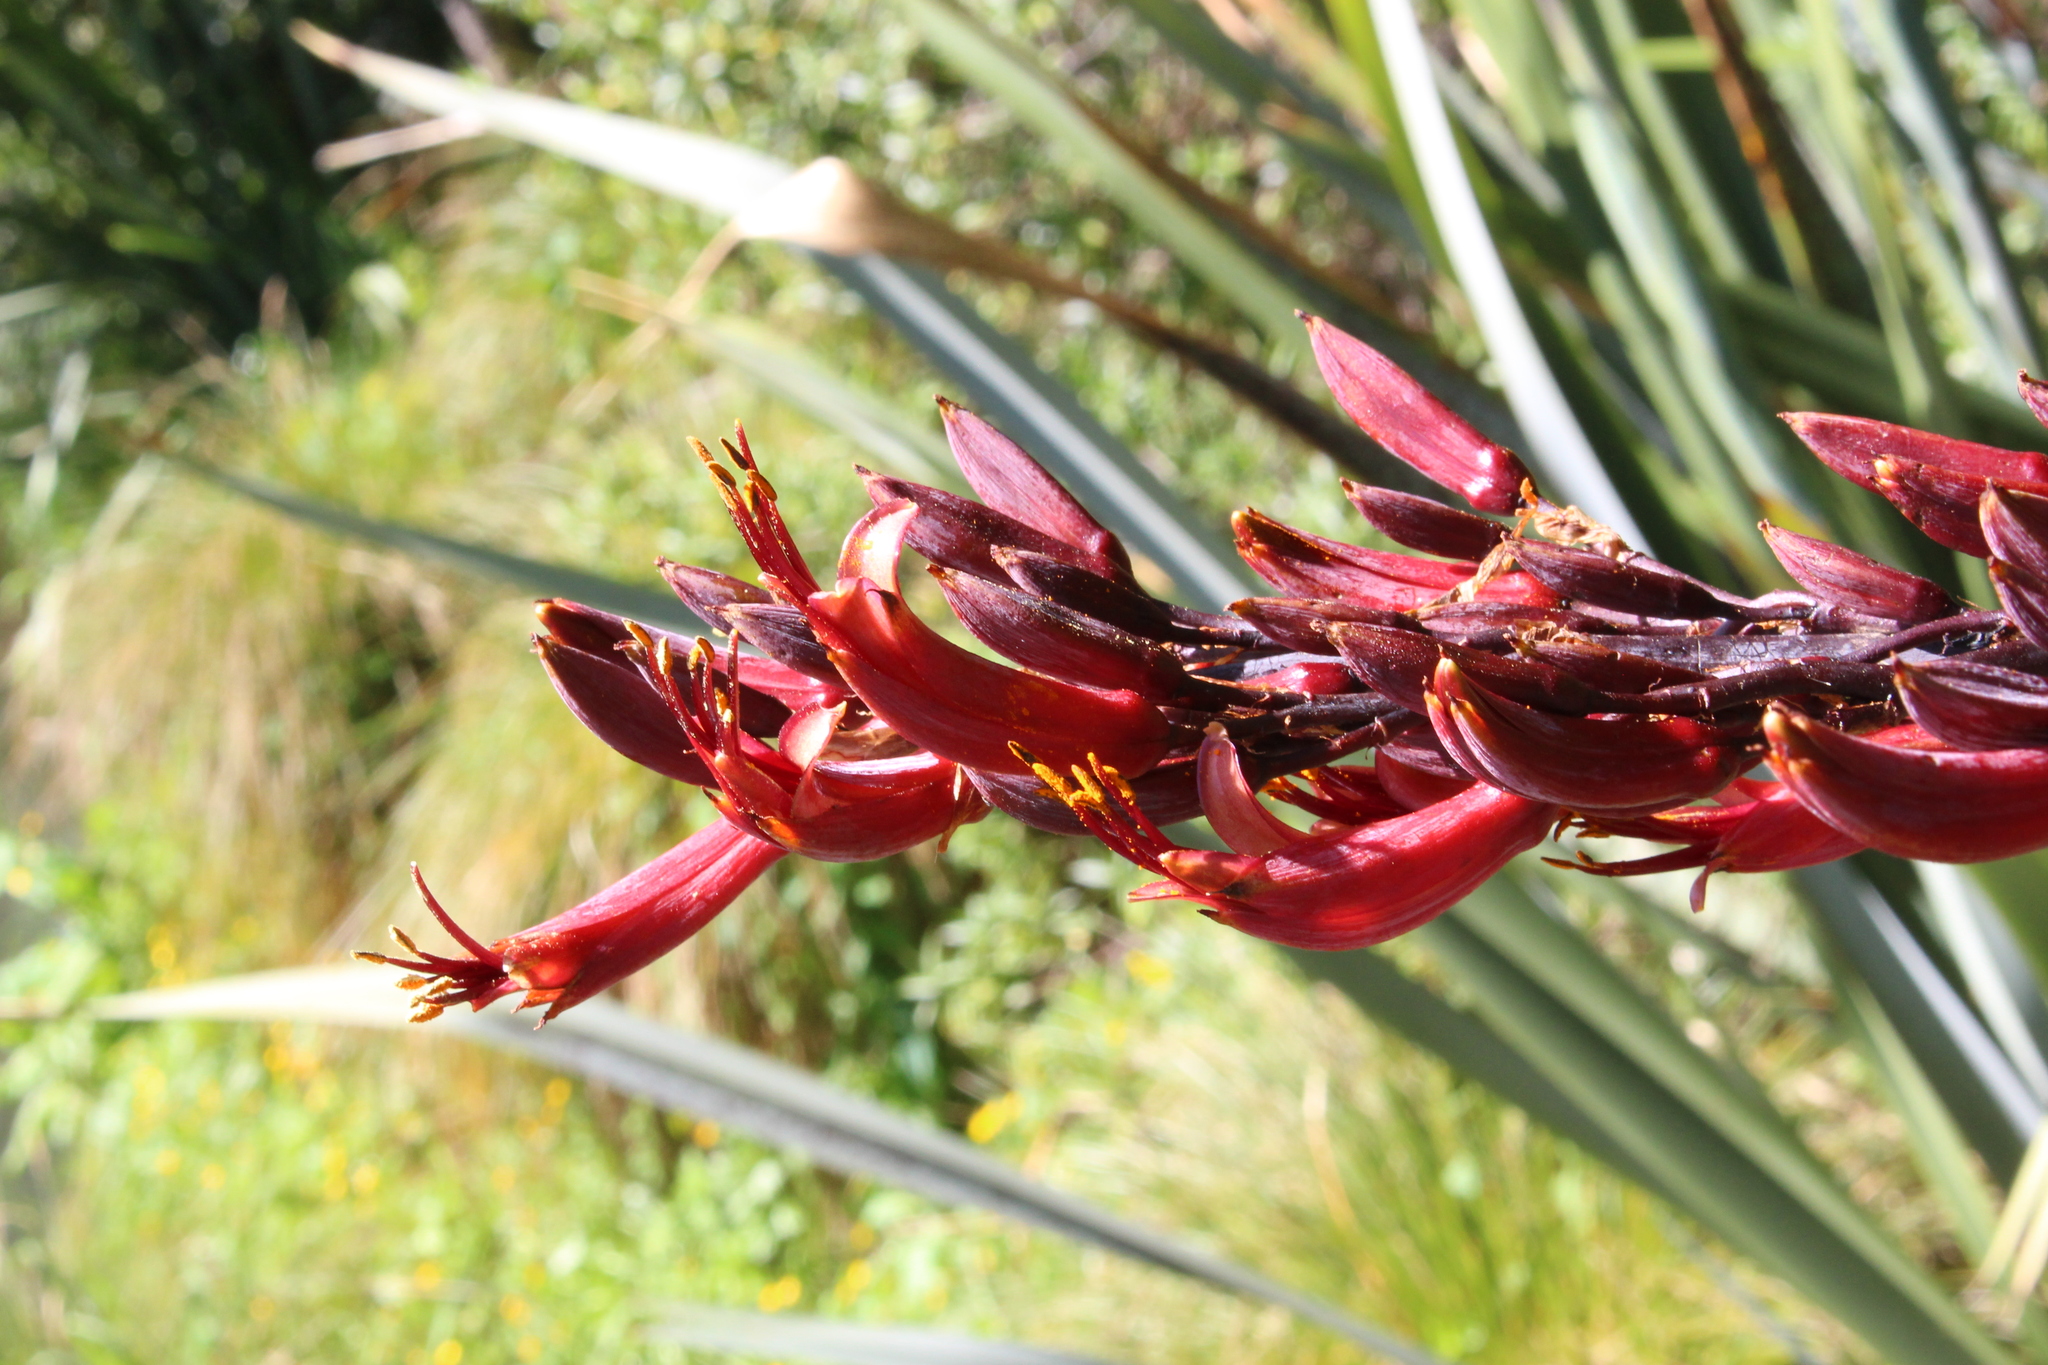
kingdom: Plantae
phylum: Tracheophyta
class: Liliopsida
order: Asparagales
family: Asphodelaceae
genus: Phormium
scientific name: Phormium tenax
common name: New zealand flax
